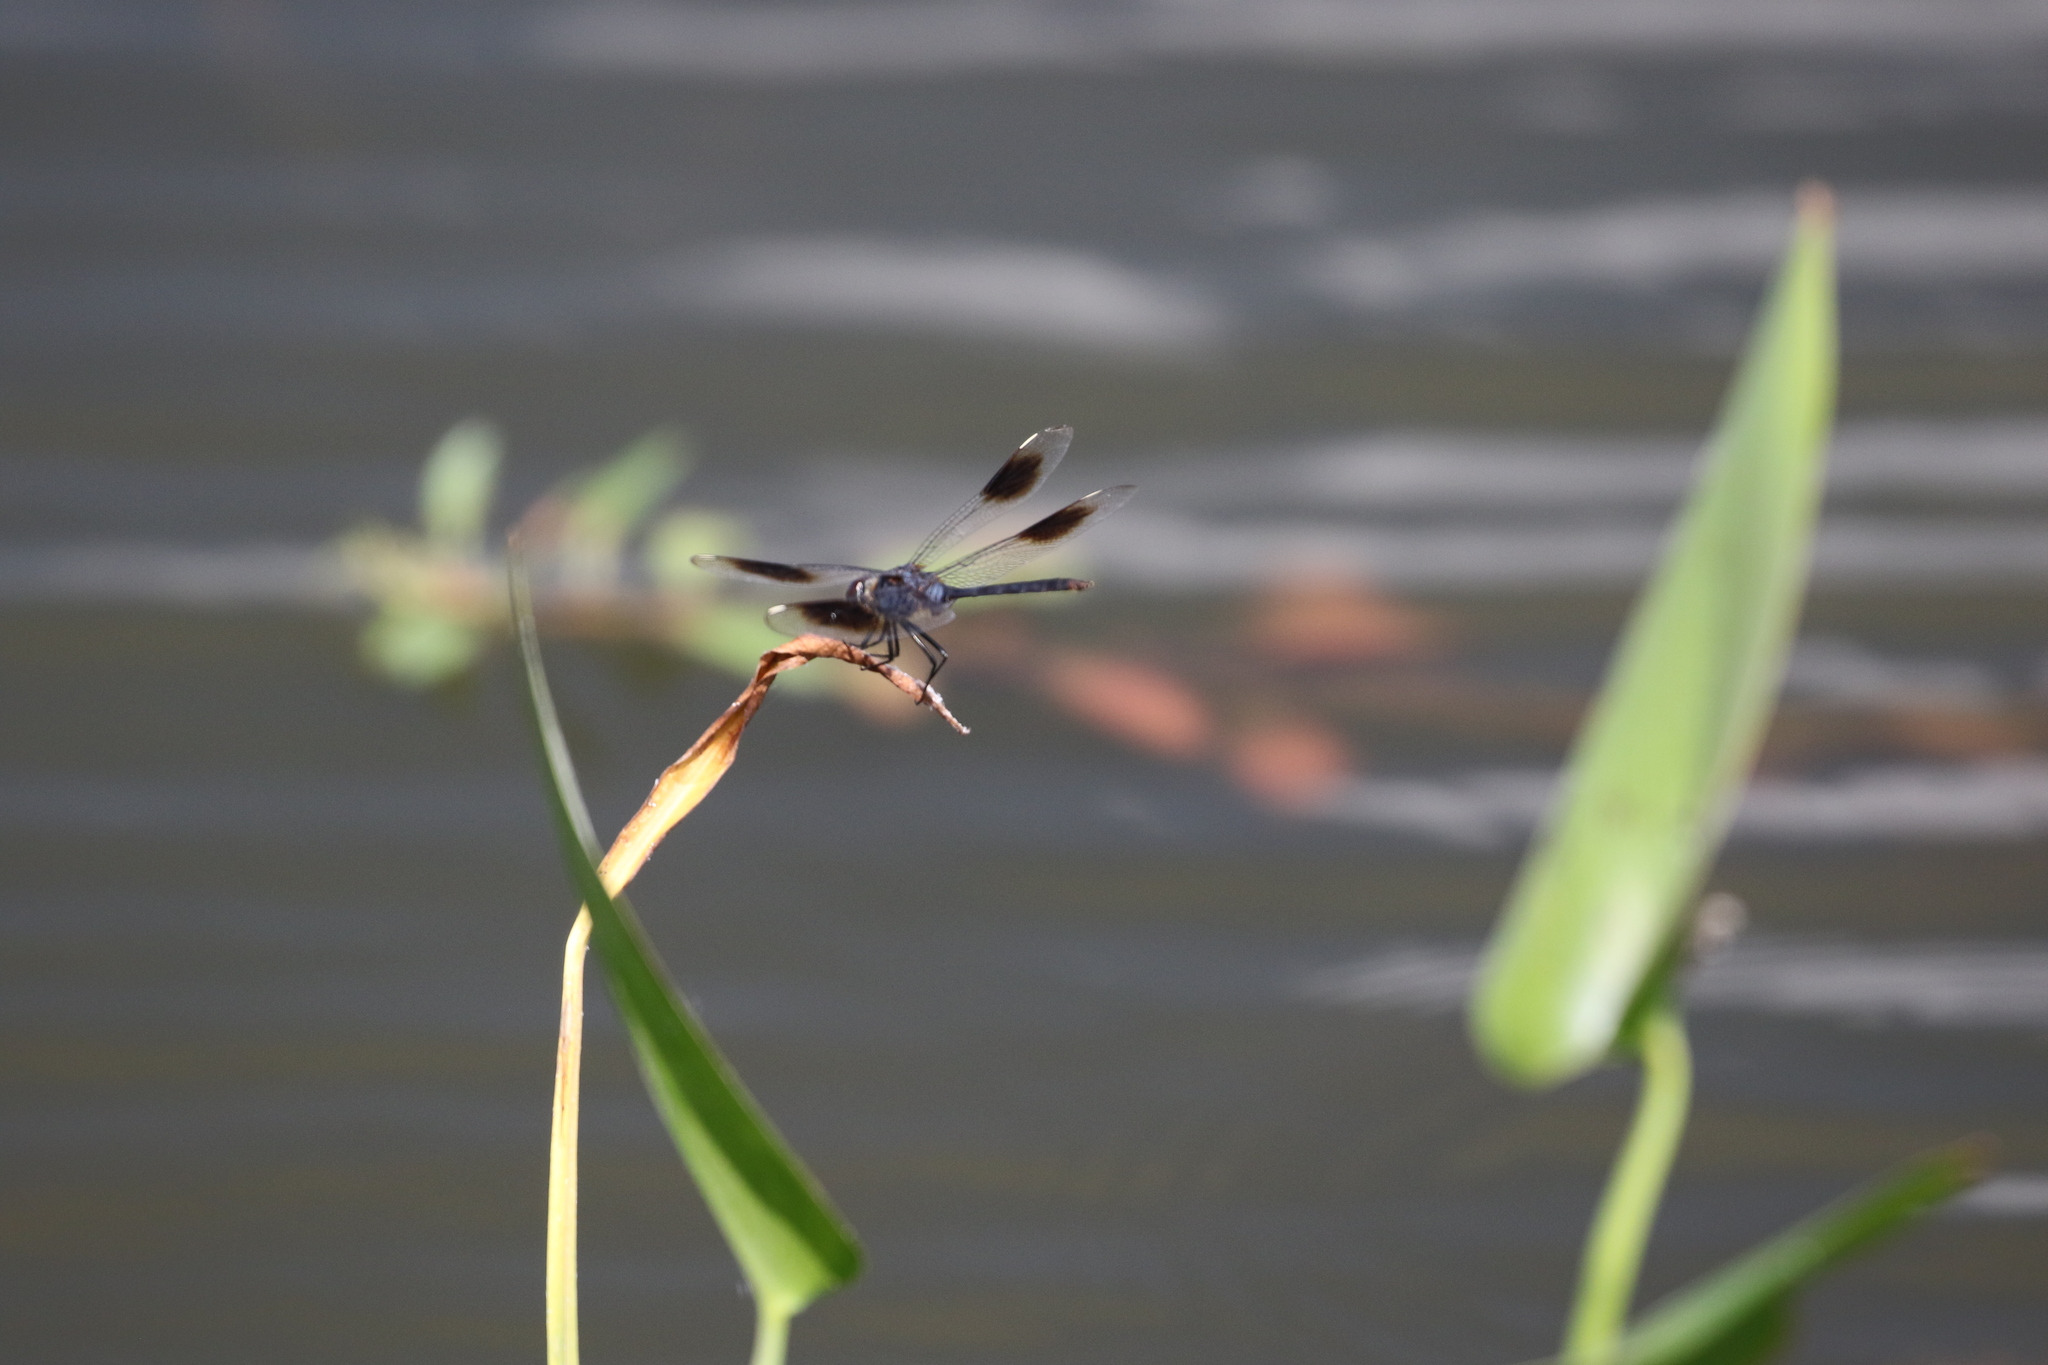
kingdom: Animalia
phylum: Arthropoda
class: Insecta
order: Odonata
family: Libellulidae
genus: Brachymesia
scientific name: Brachymesia gravida
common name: Four-spotted pennant
